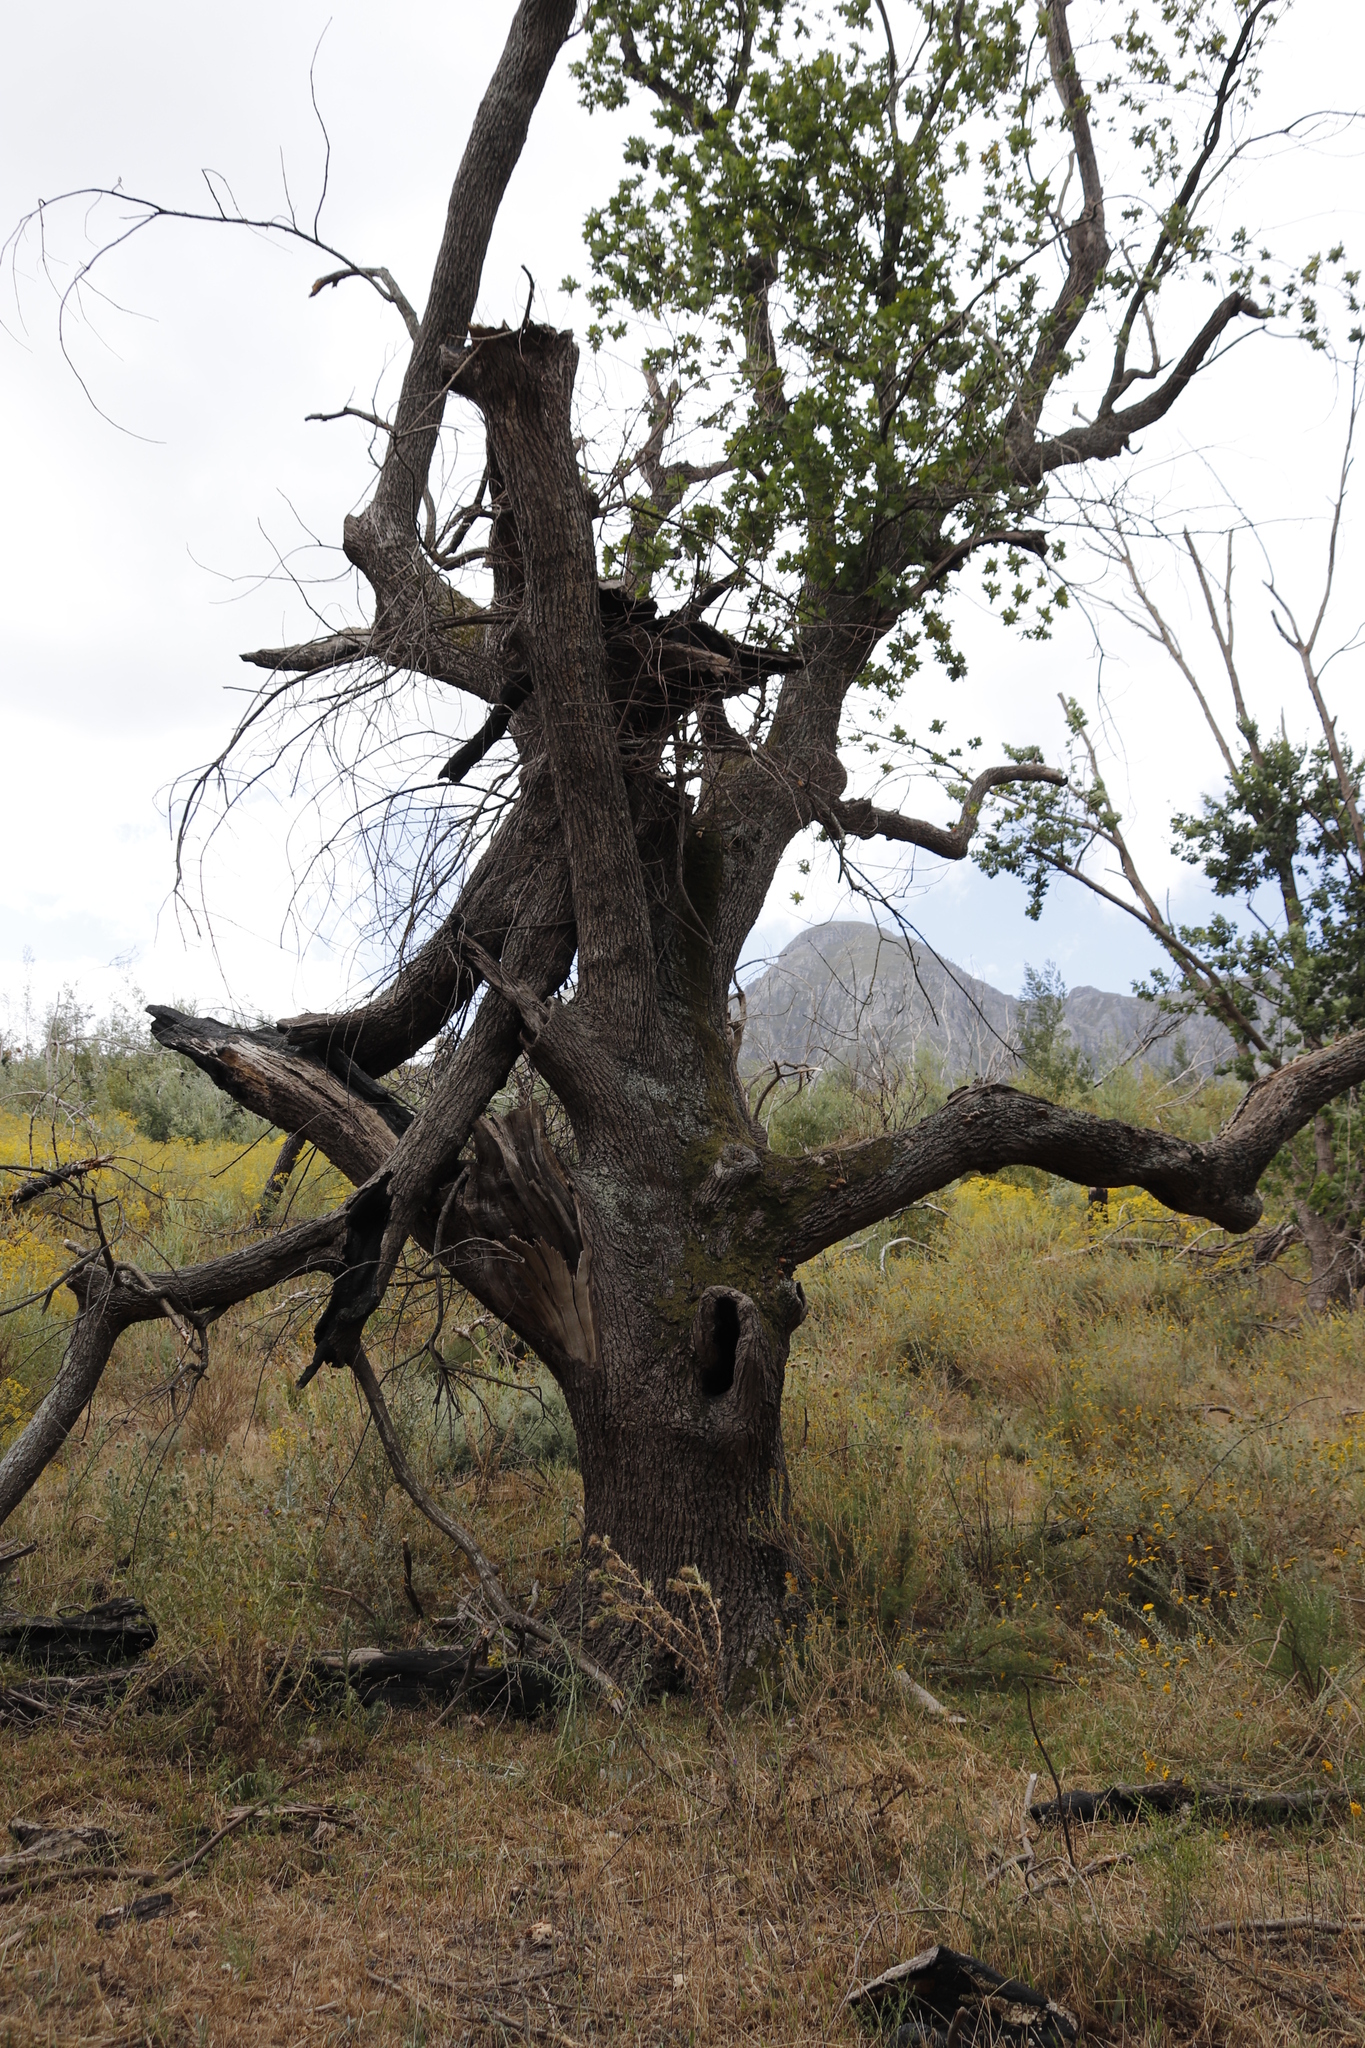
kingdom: Plantae
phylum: Tracheophyta
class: Magnoliopsida
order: Fagales
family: Fagaceae
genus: Quercus
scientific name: Quercus robur
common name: Pedunculate oak
